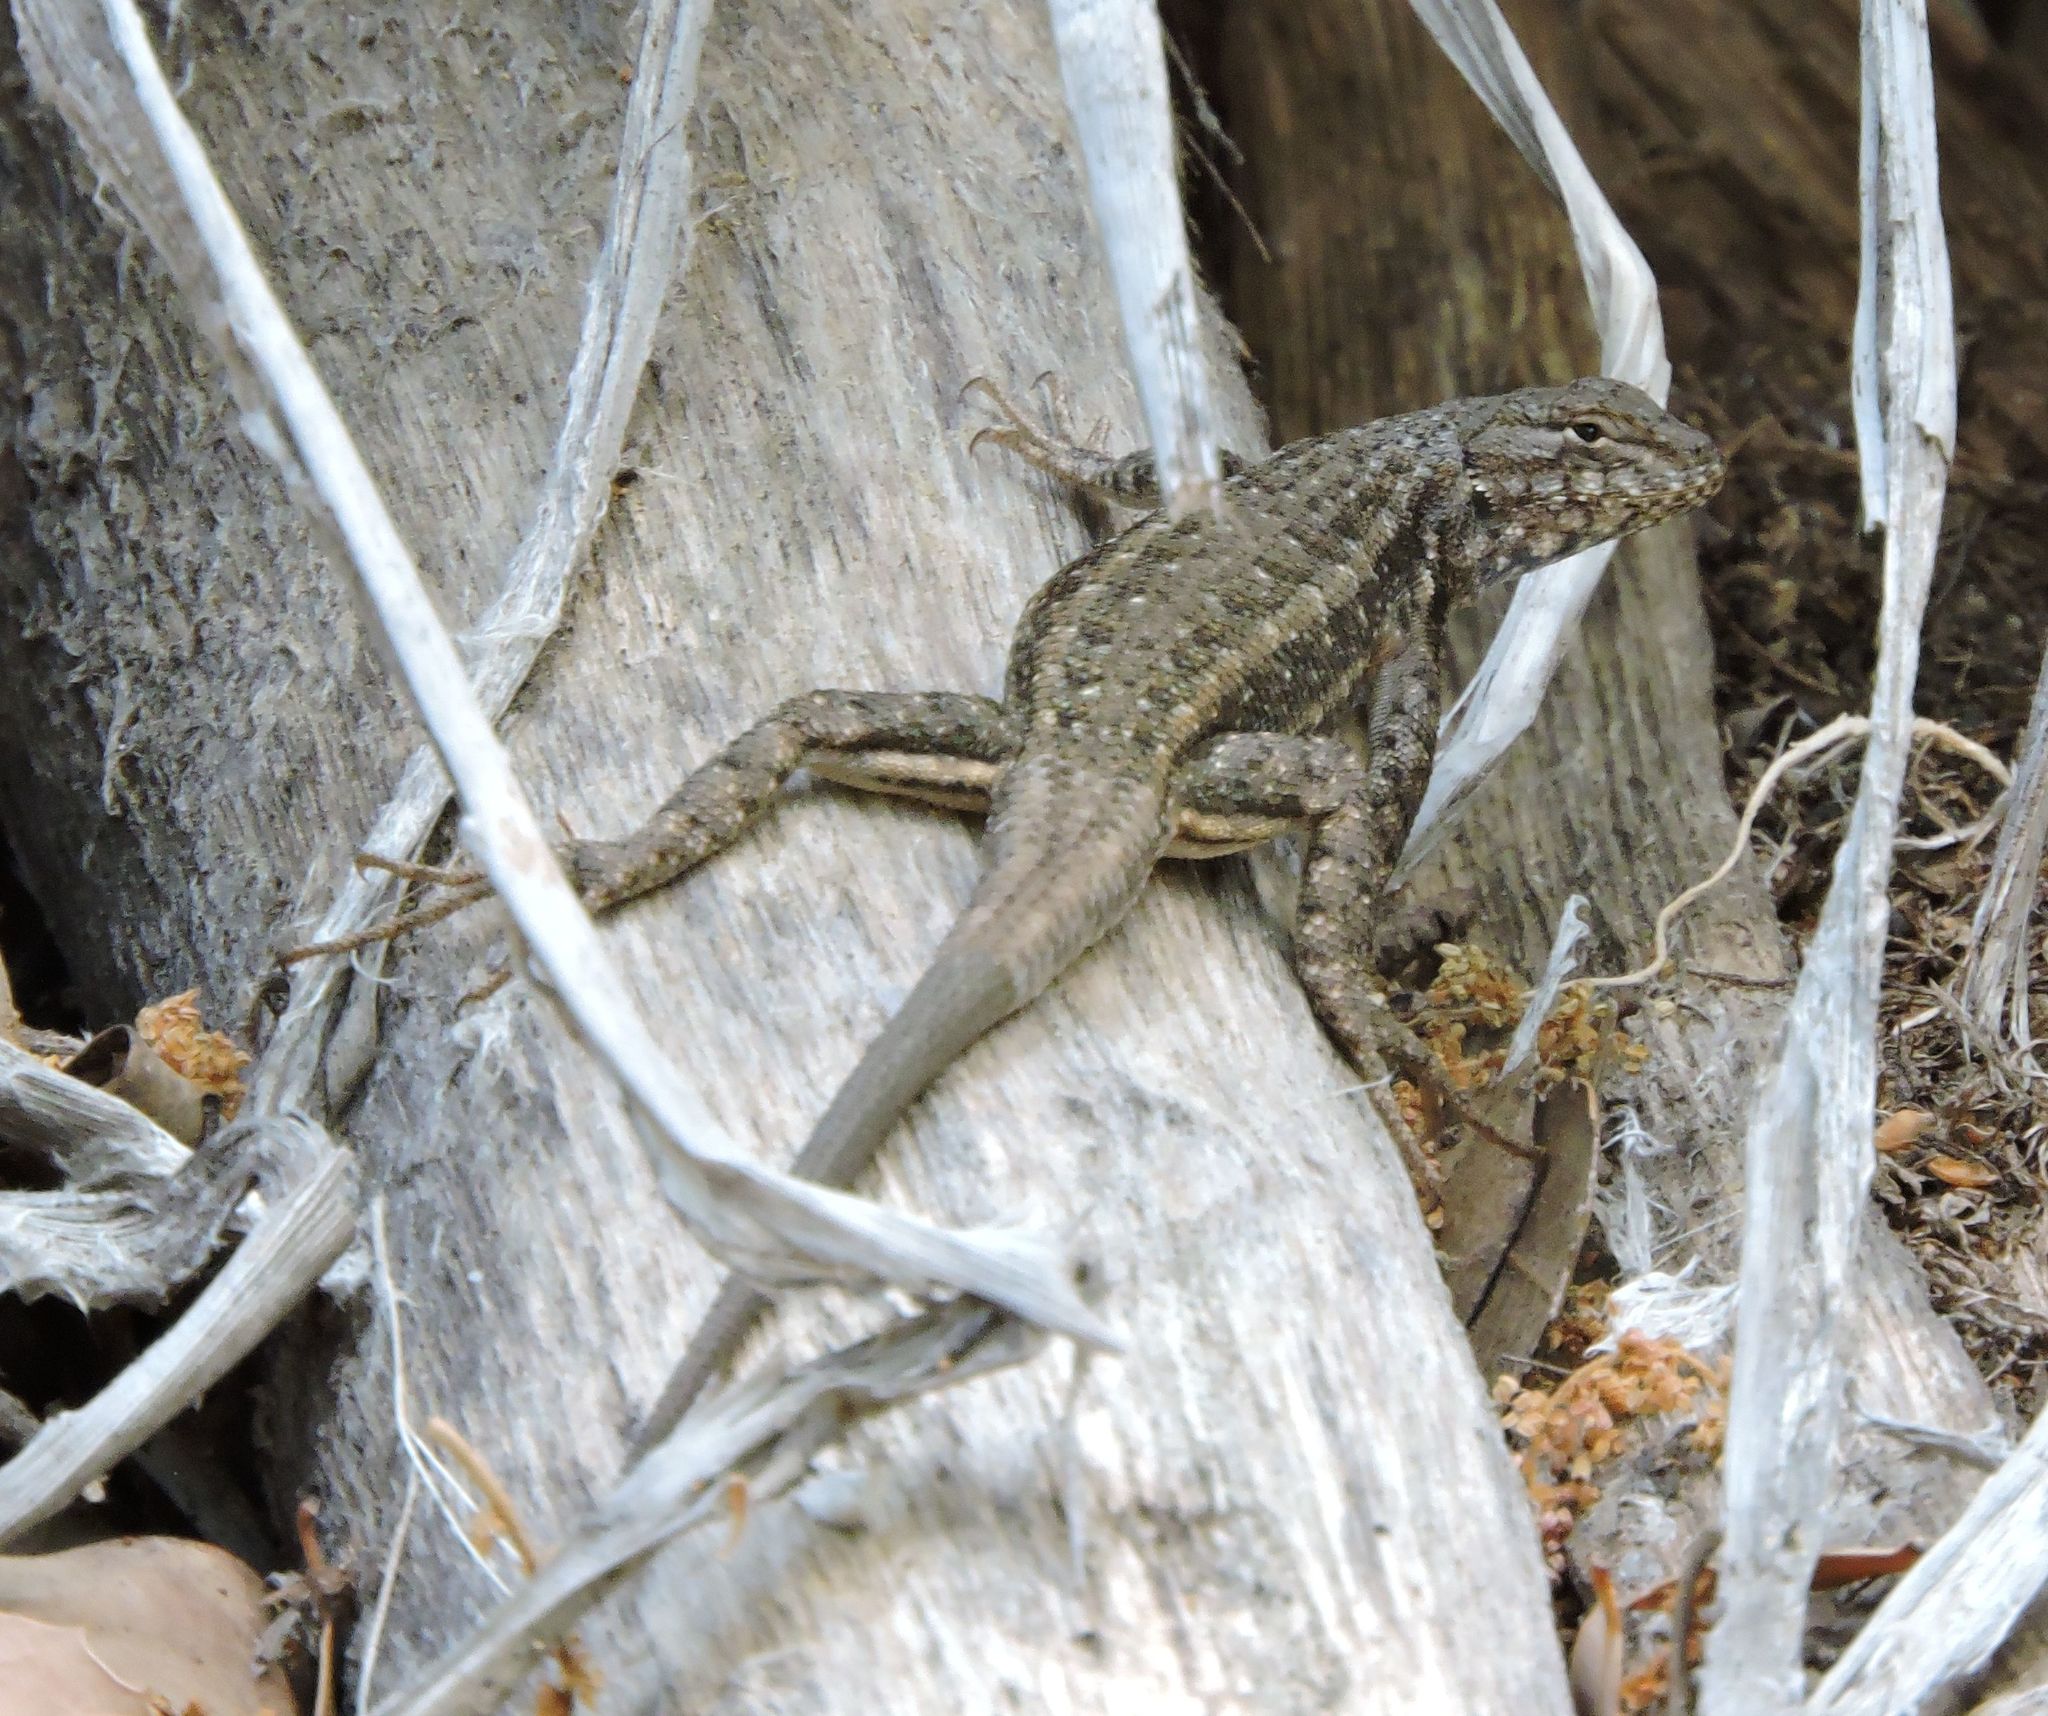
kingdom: Animalia
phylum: Chordata
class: Squamata
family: Phrynosomatidae
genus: Sceloporus
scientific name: Sceloporus graciosus
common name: Sagebrush lizard
